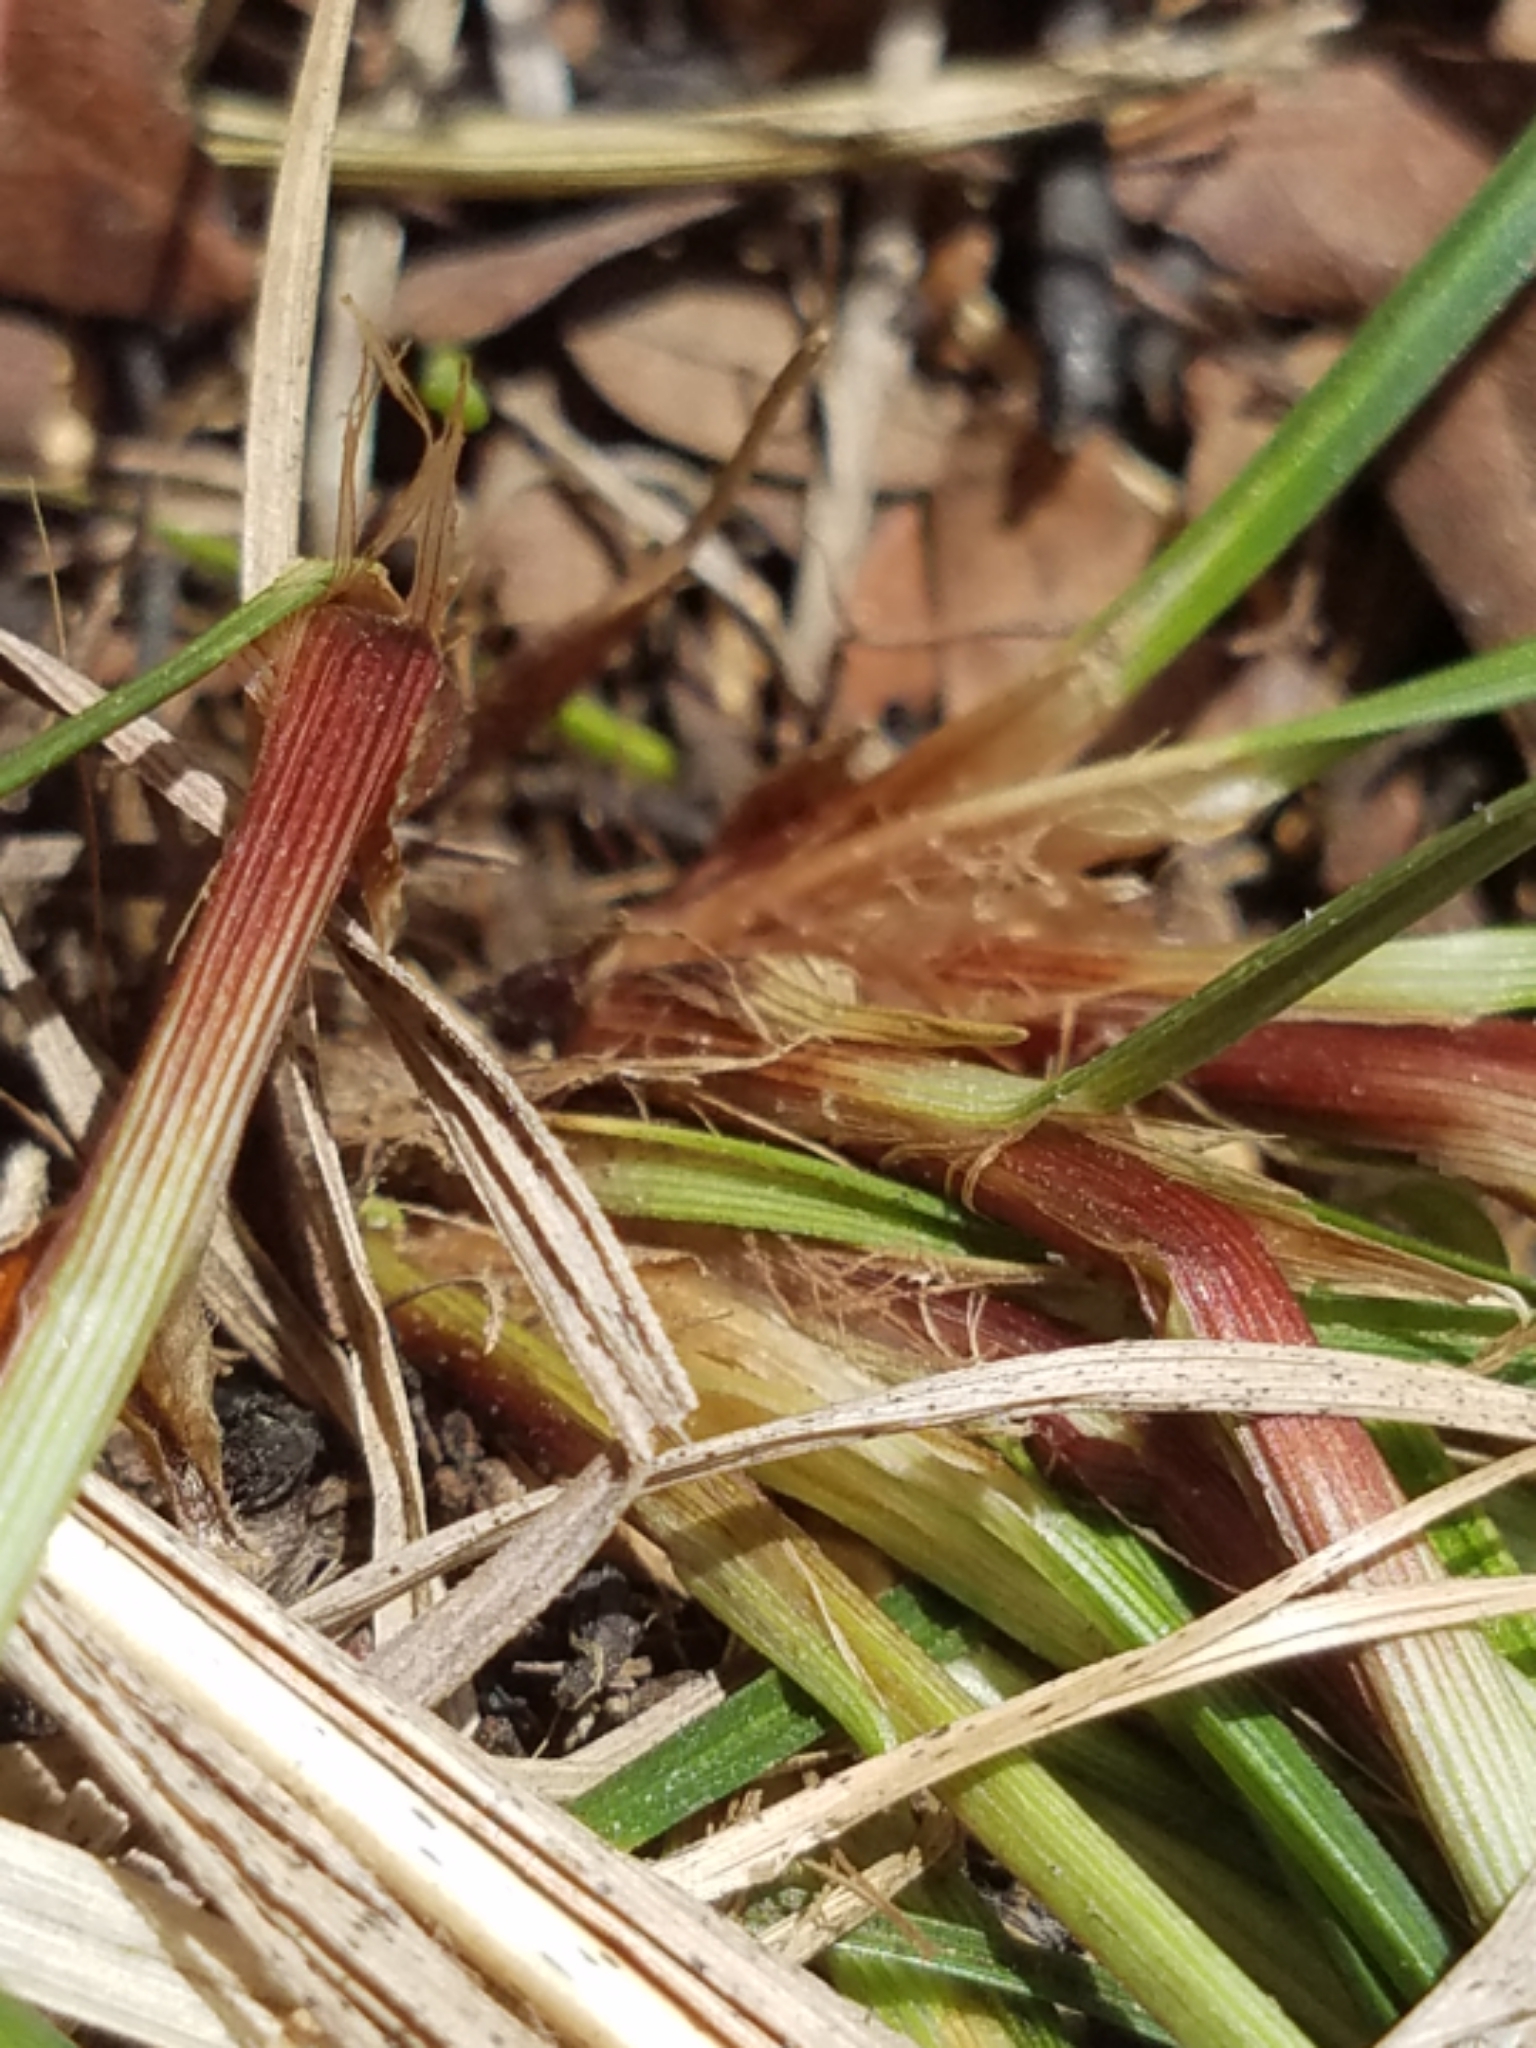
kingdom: Plantae
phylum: Tracheophyta
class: Liliopsida
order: Poales
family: Cyperaceae
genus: Carex
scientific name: Carex umbellata
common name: Early oak sedge
